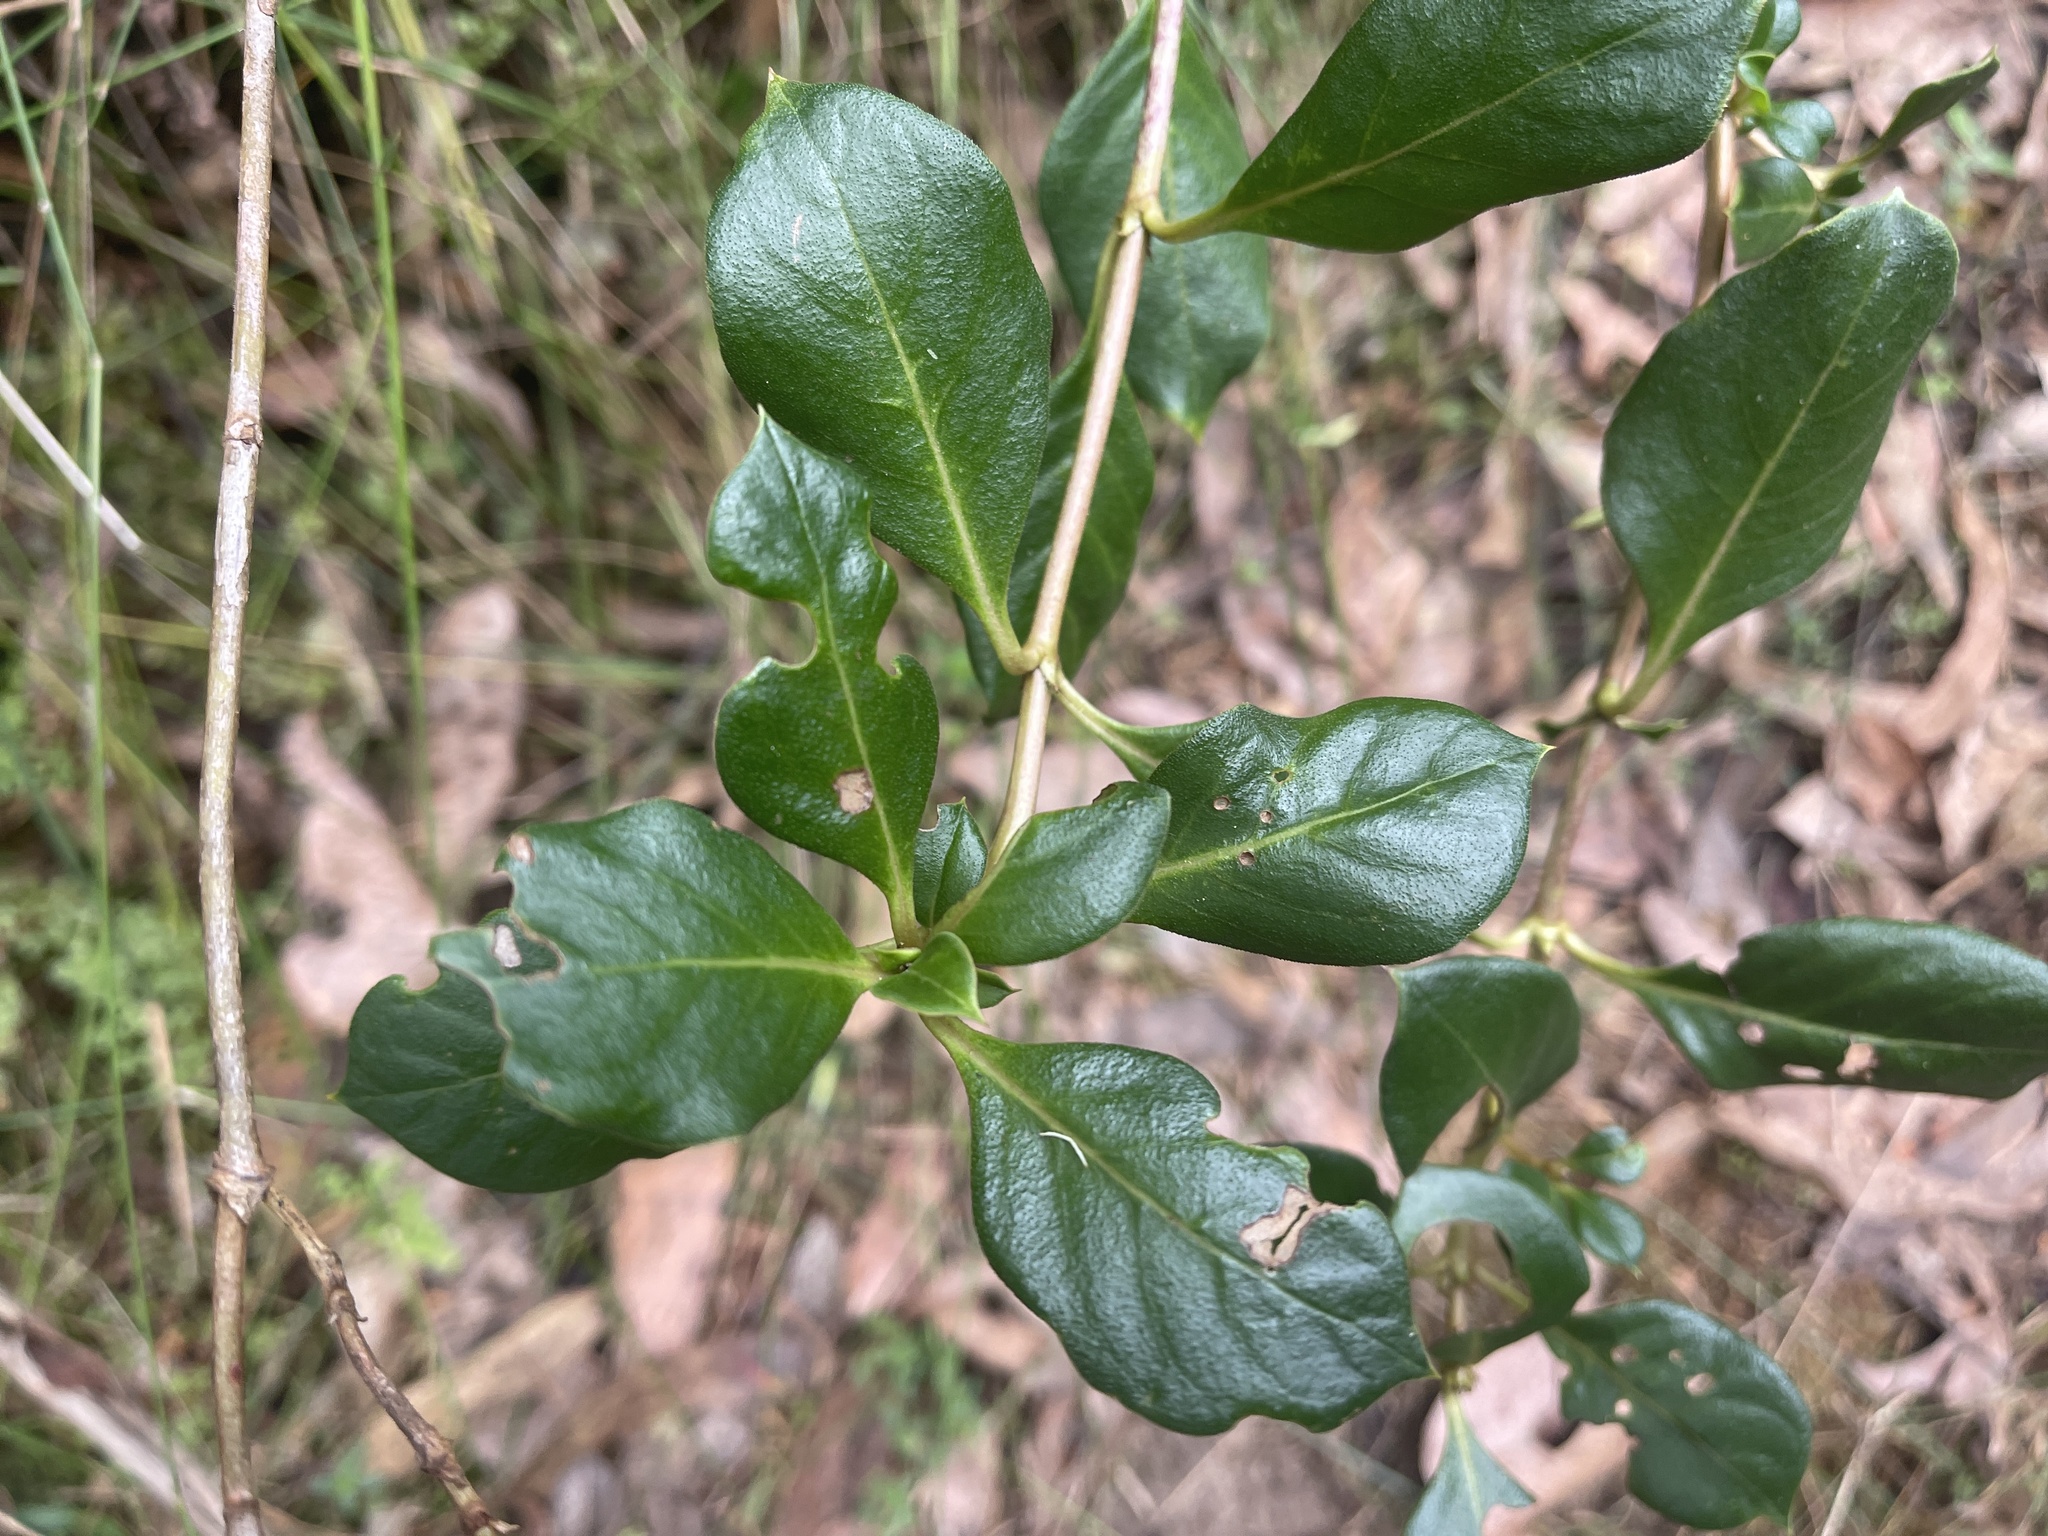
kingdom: Plantae
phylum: Tracheophyta
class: Magnoliopsida
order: Gentianales
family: Rubiaceae
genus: Coprosma
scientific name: Coprosma hirtella
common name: Rough coprosma
